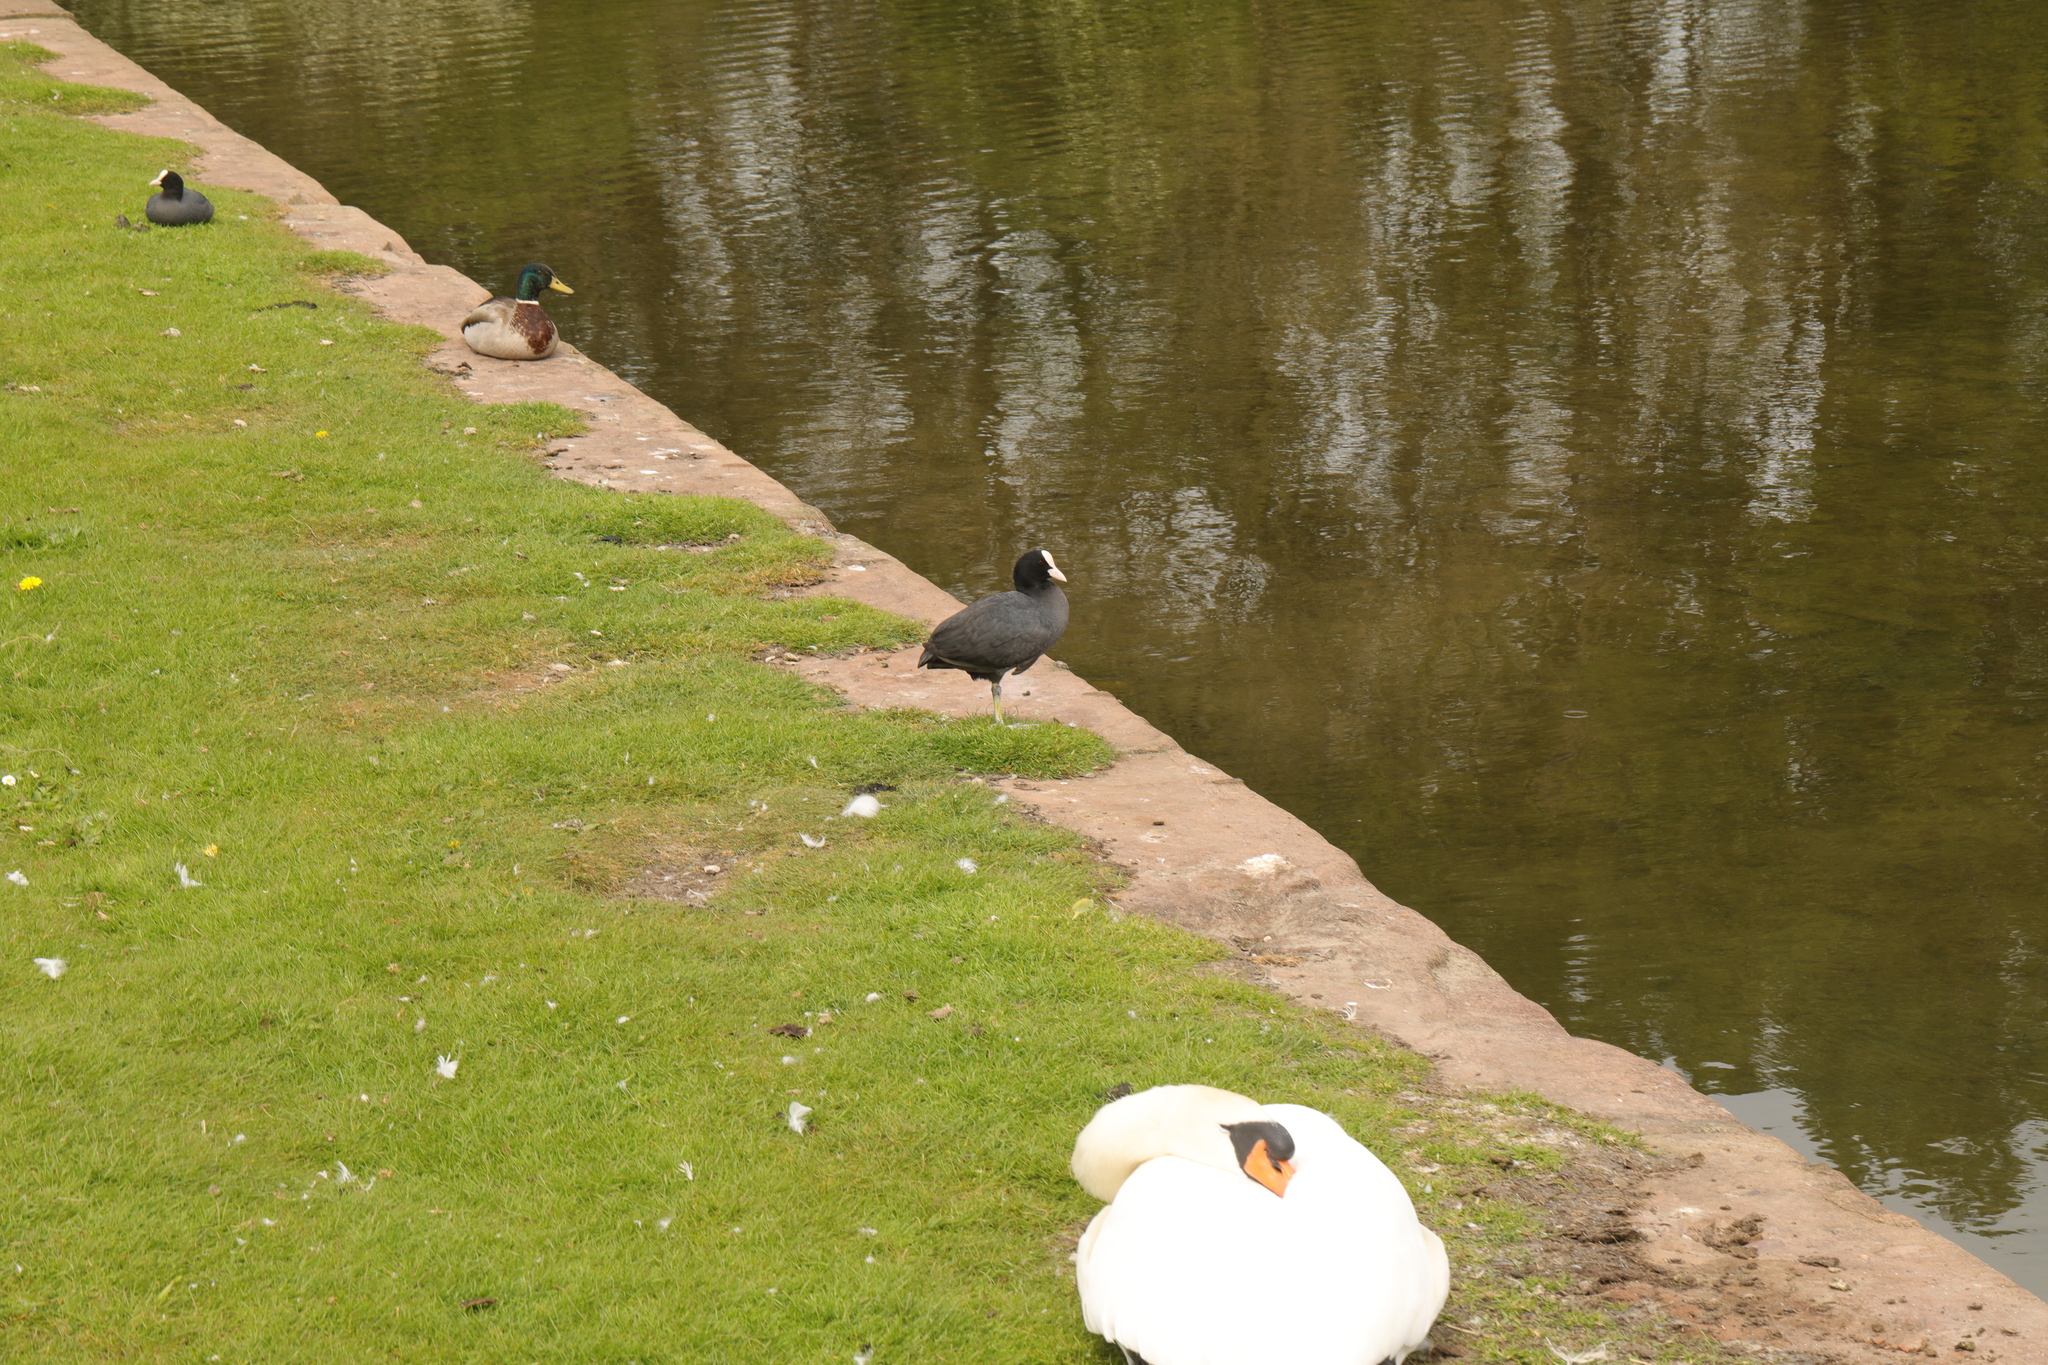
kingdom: Animalia
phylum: Chordata
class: Aves
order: Gruiformes
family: Rallidae
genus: Fulica
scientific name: Fulica atra
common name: Eurasian coot
